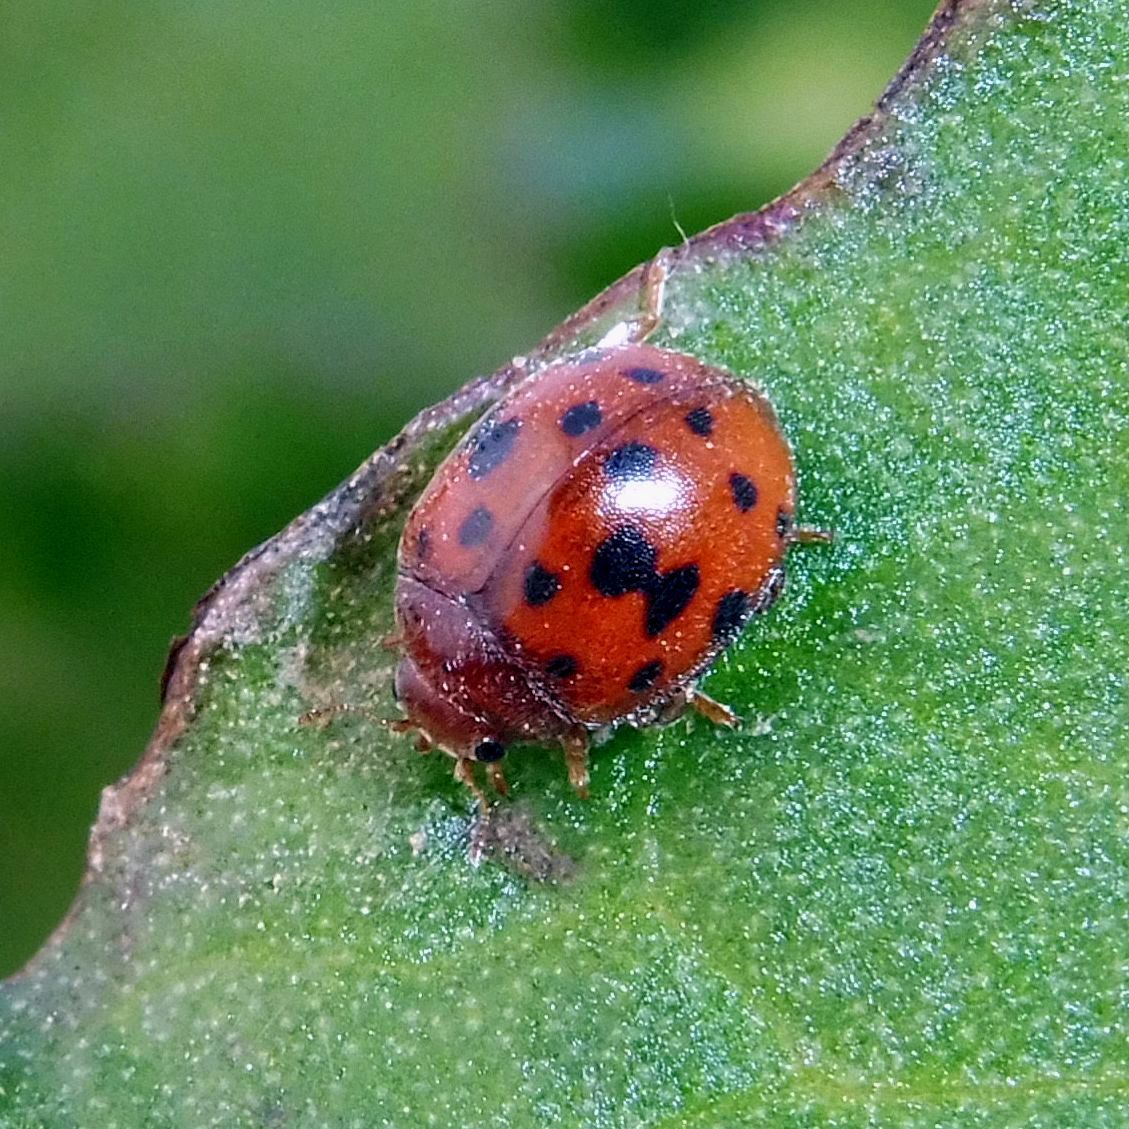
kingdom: Animalia
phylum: Arthropoda
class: Insecta
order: Coleoptera
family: Coccinellidae
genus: Subcoccinella
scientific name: Subcoccinella vigintiquatuorpunctata
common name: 24-spot ladybird
